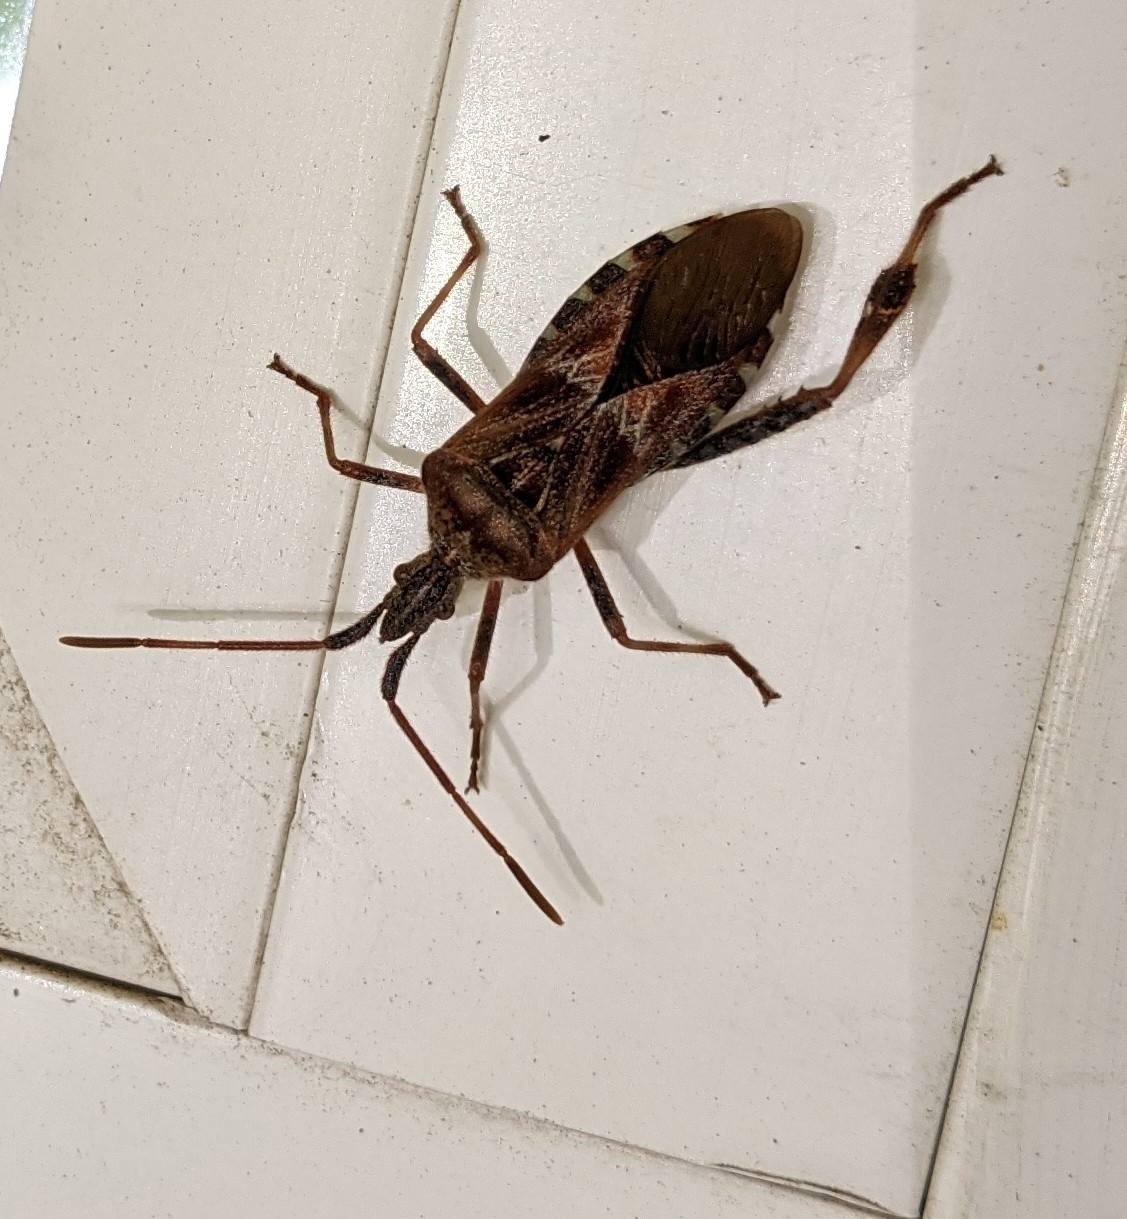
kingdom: Animalia
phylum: Arthropoda
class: Insecta
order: Hemiptera
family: Coreidae
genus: Leptoglossus
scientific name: Leptoglossus occidentalis
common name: Western conifer-seed bug
